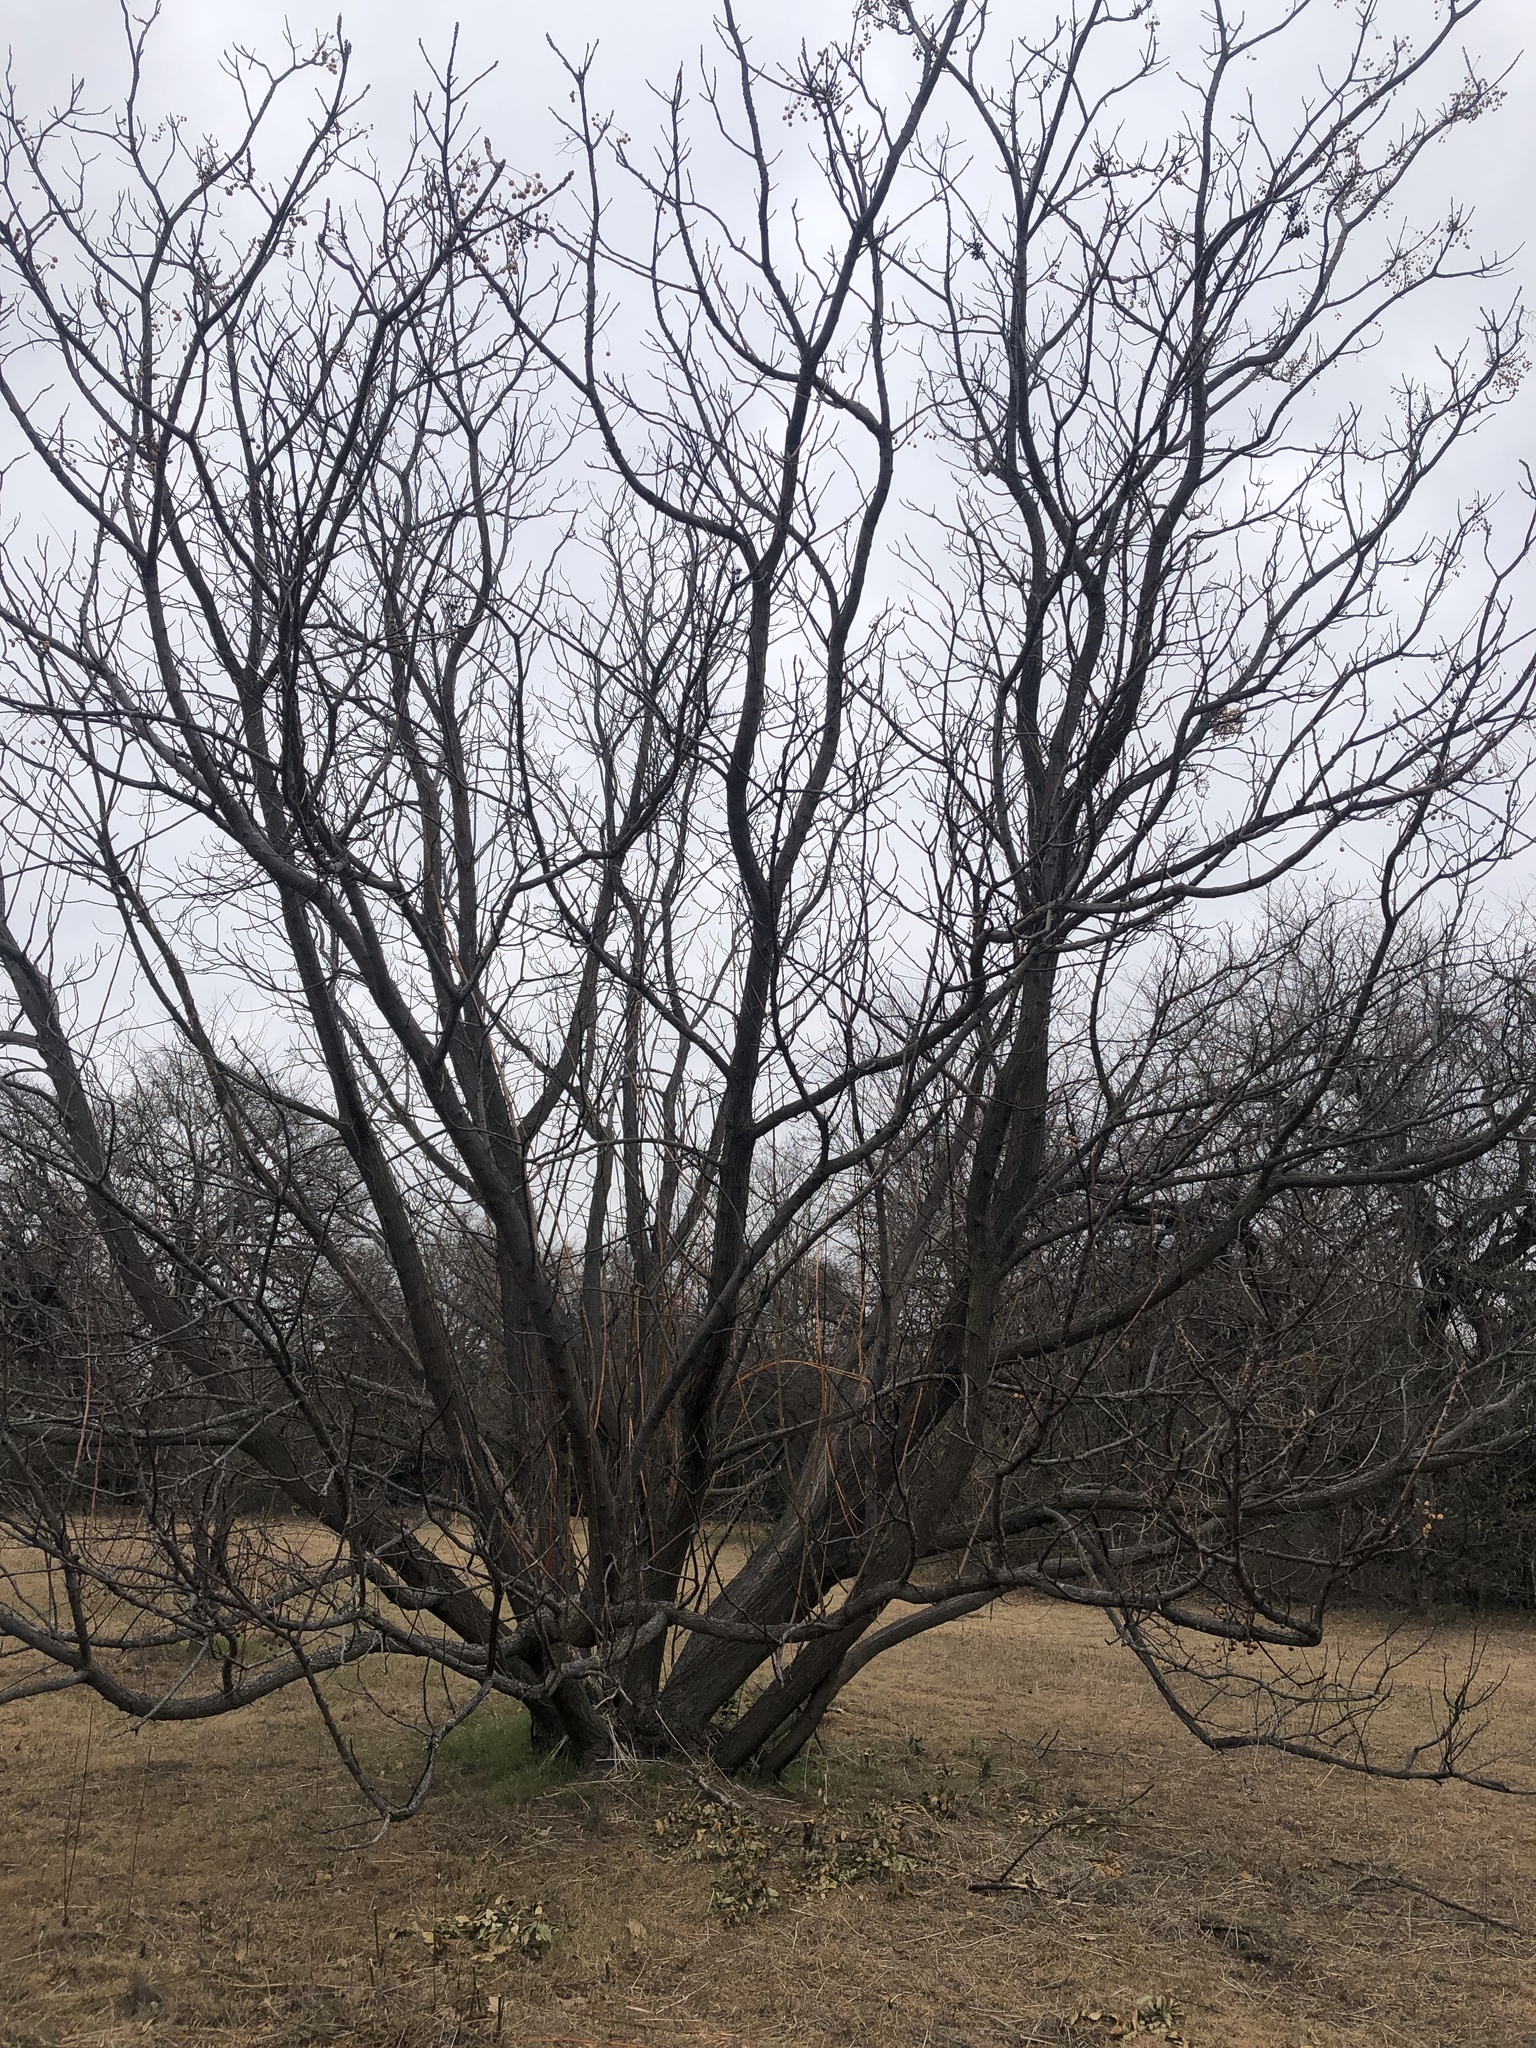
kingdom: Plantae
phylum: Tracheophyta
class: Magnoliopsida
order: Sapindales
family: Meliaceae
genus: Melia
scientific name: Melia azedarach
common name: Chinaberrytree
